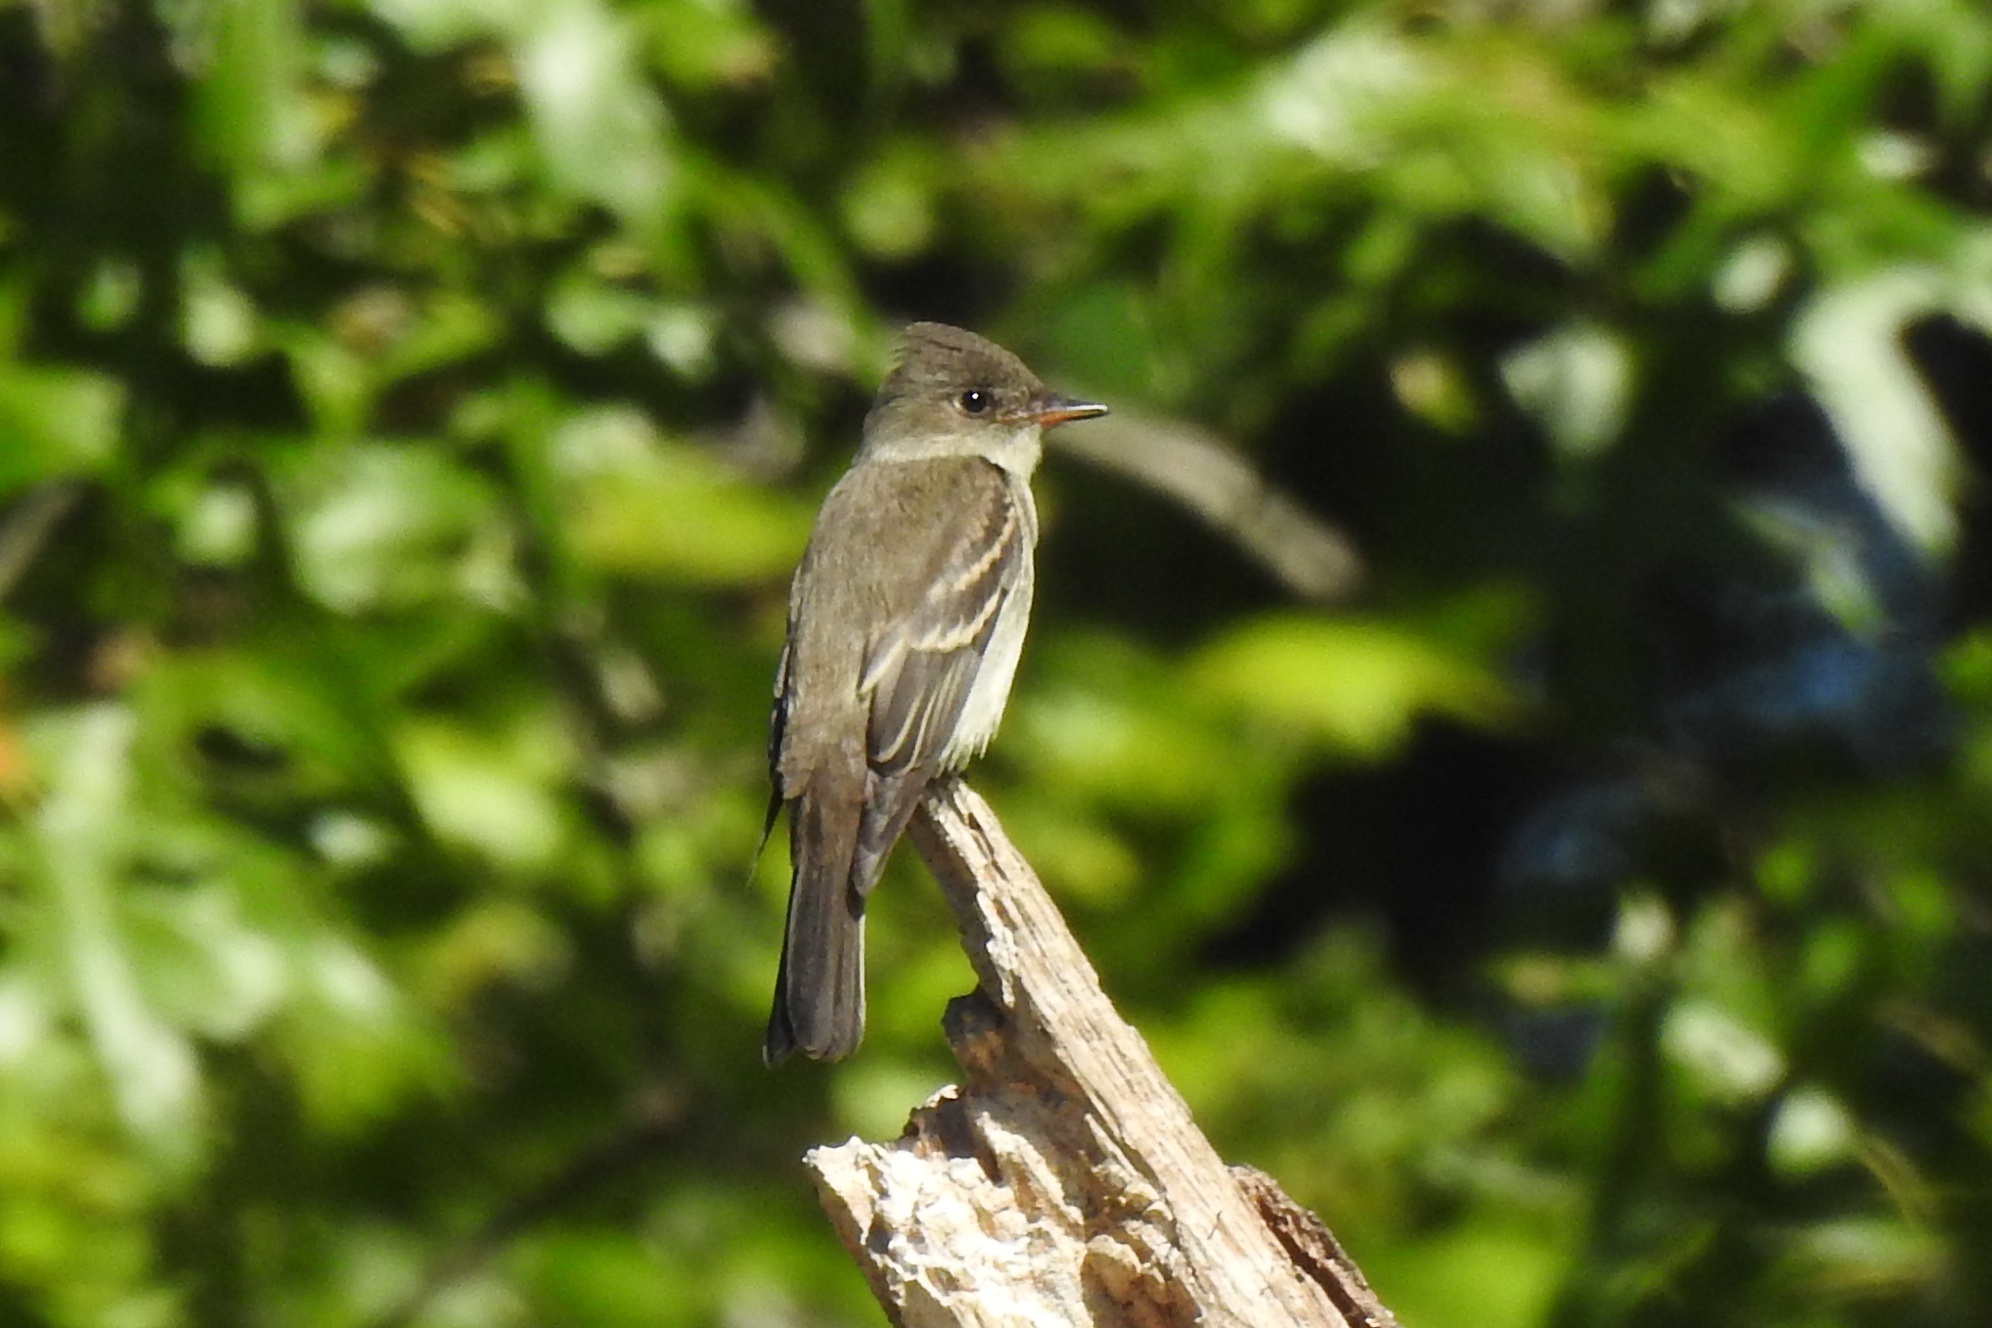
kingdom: Animalia
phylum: Chordata
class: Aves
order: Passeriformes
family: Tyrannidae
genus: Contopus
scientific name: Contopus virens
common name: Eastern wood-pewee
